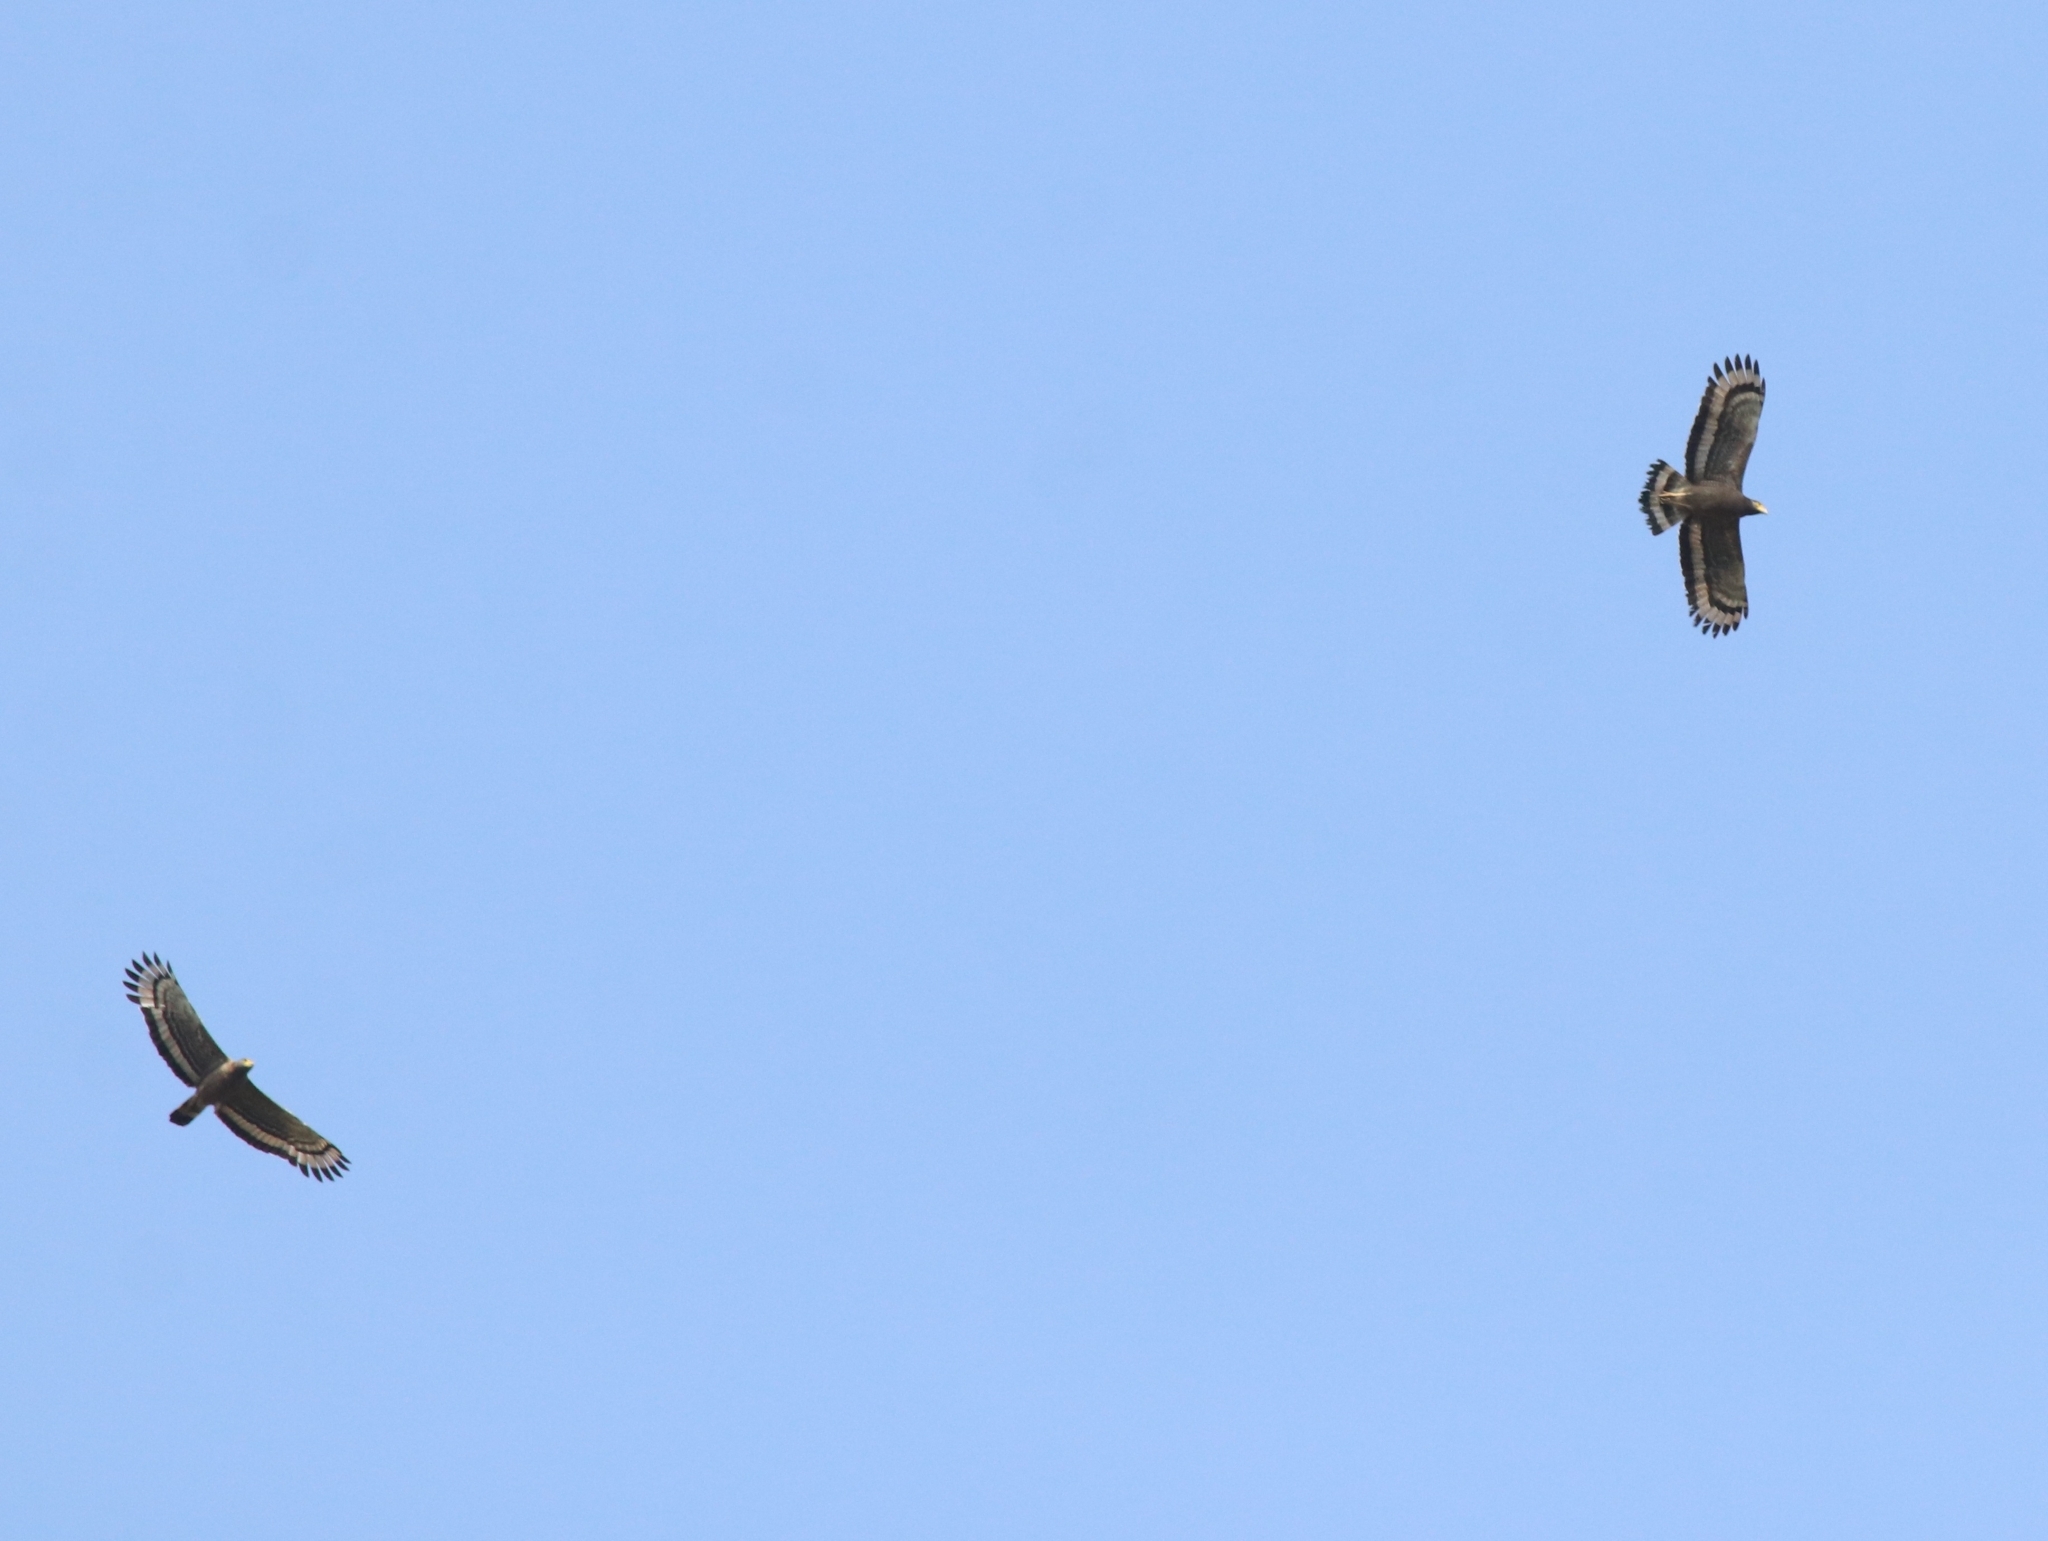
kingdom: Animalia
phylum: Chordata
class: Aves
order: Accipitriformes
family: Accipitridae
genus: Spilornis
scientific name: Spilornis cheela
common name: Crested serpent eagle
